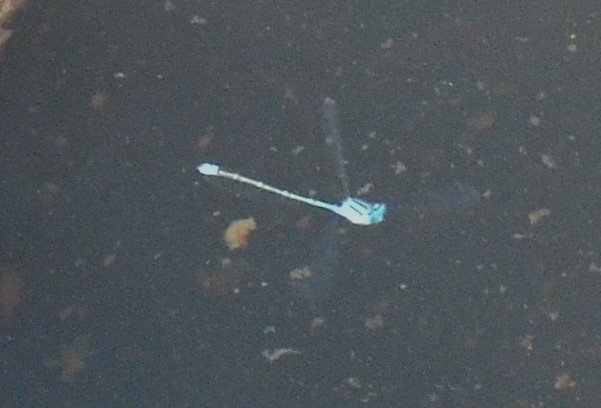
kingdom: Animalia
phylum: Arthropoda
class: Insecta
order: Odonata
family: Coenagrionidae
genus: Pseudagrion
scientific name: Pseudagrion microcephalum
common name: Blue riverdamsel
